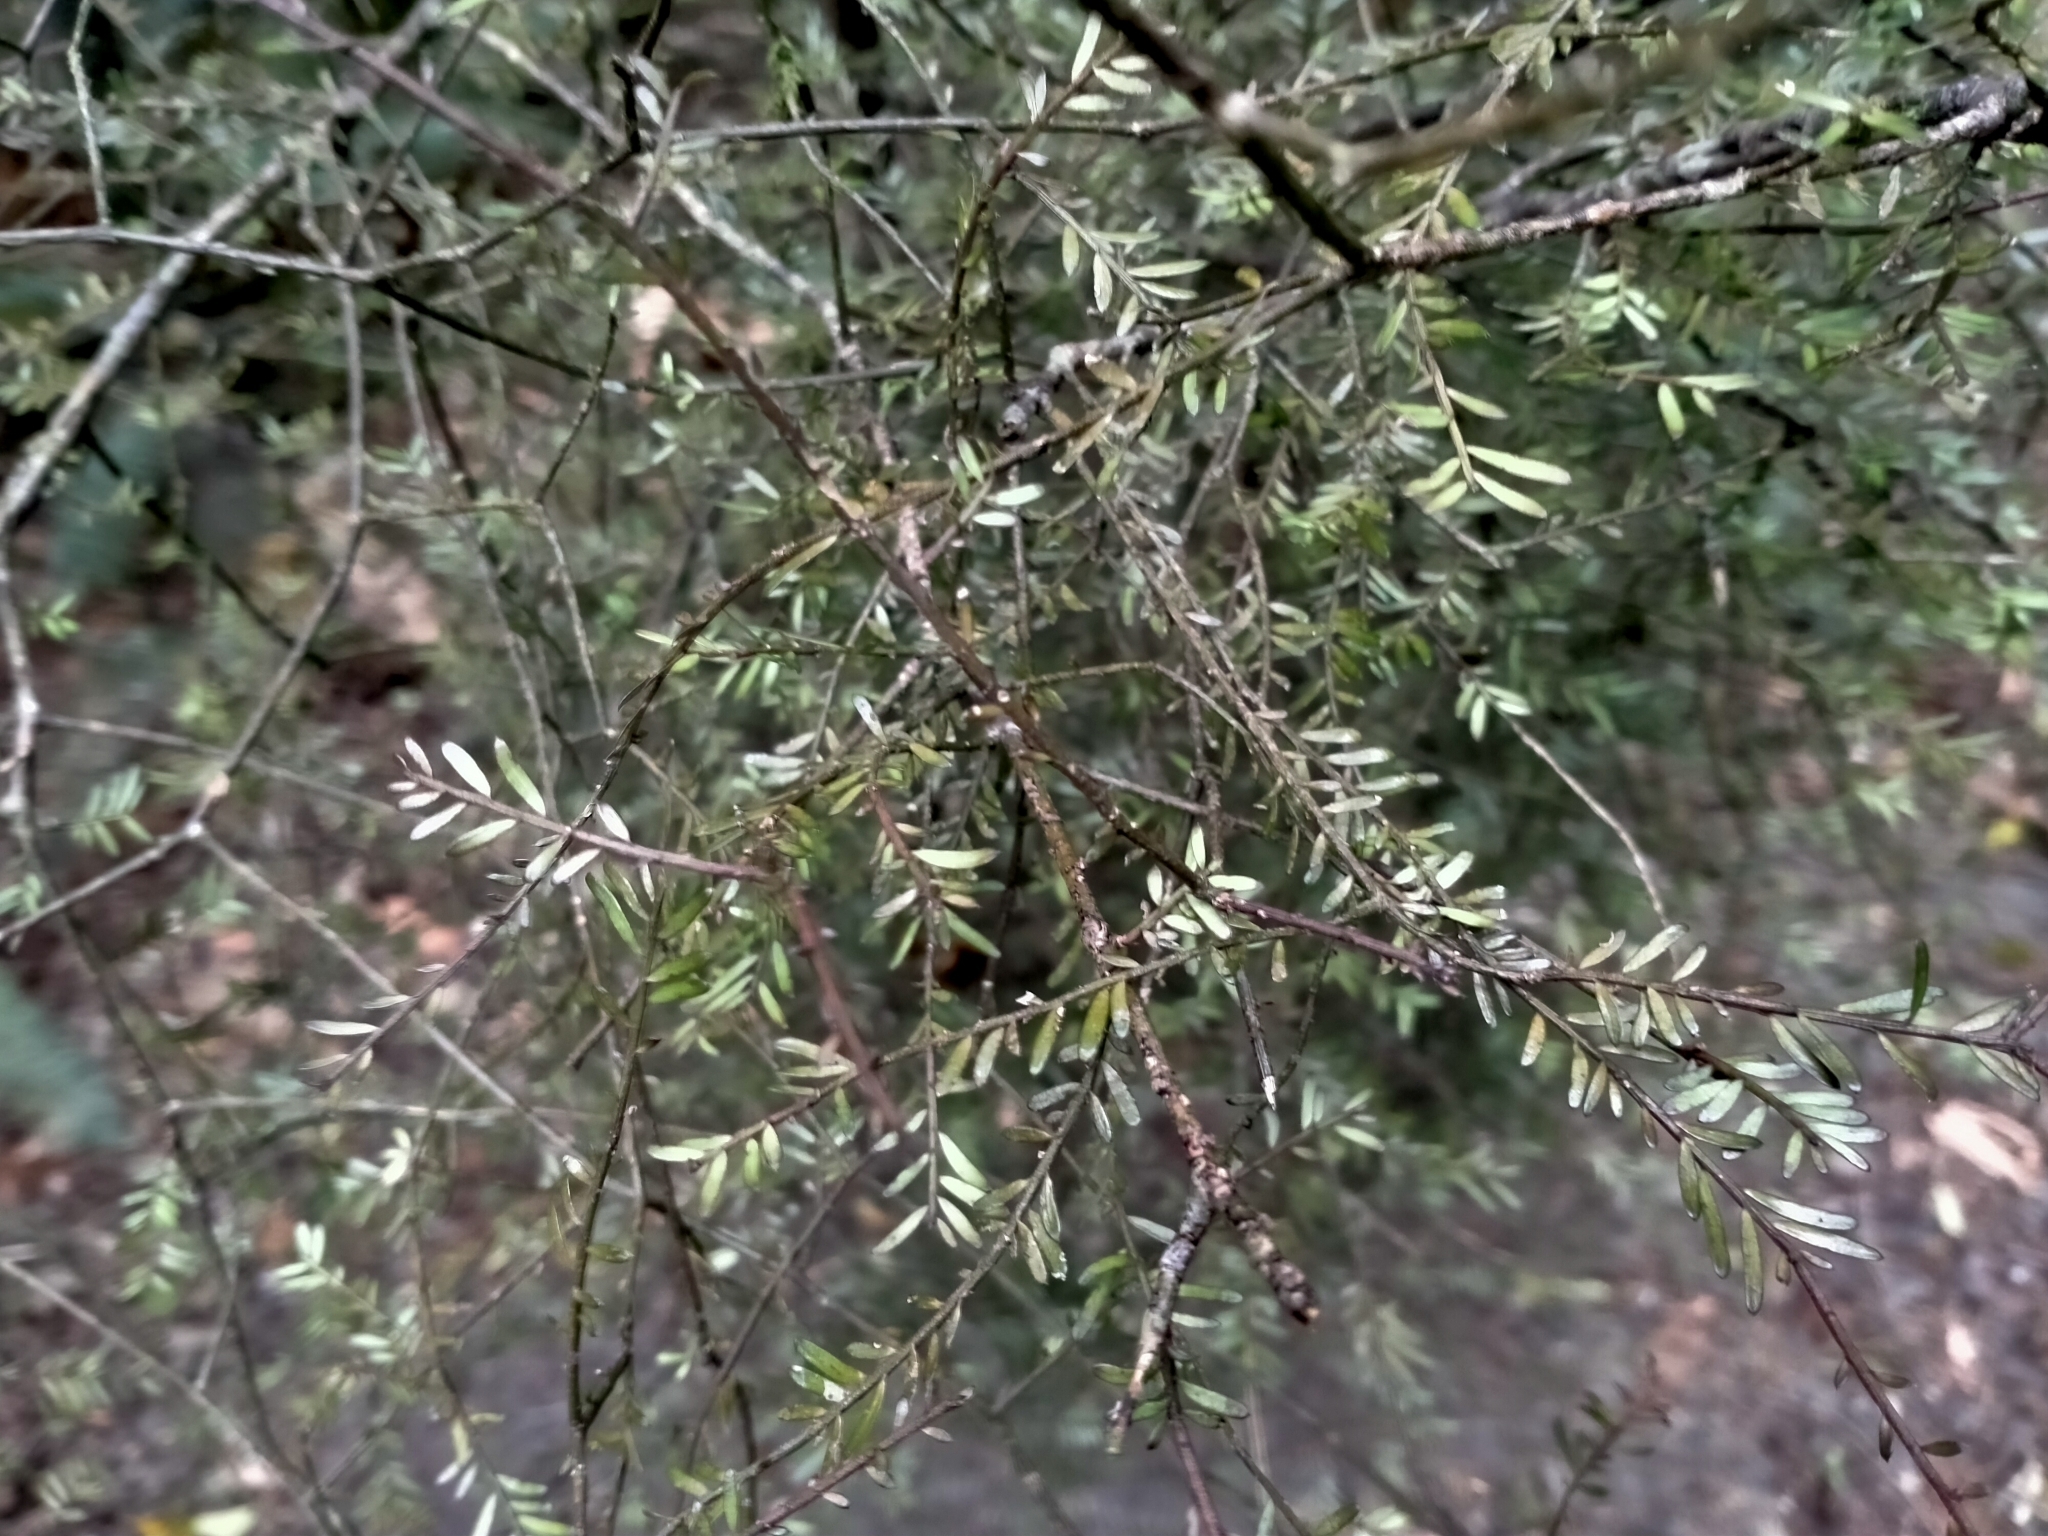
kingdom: Plantae
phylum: Tracheophyta
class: Pinopsida
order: Pinales
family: Podocarpaceae
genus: Prumnopitys
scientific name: Prumnopitys taxifolia
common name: Matai
